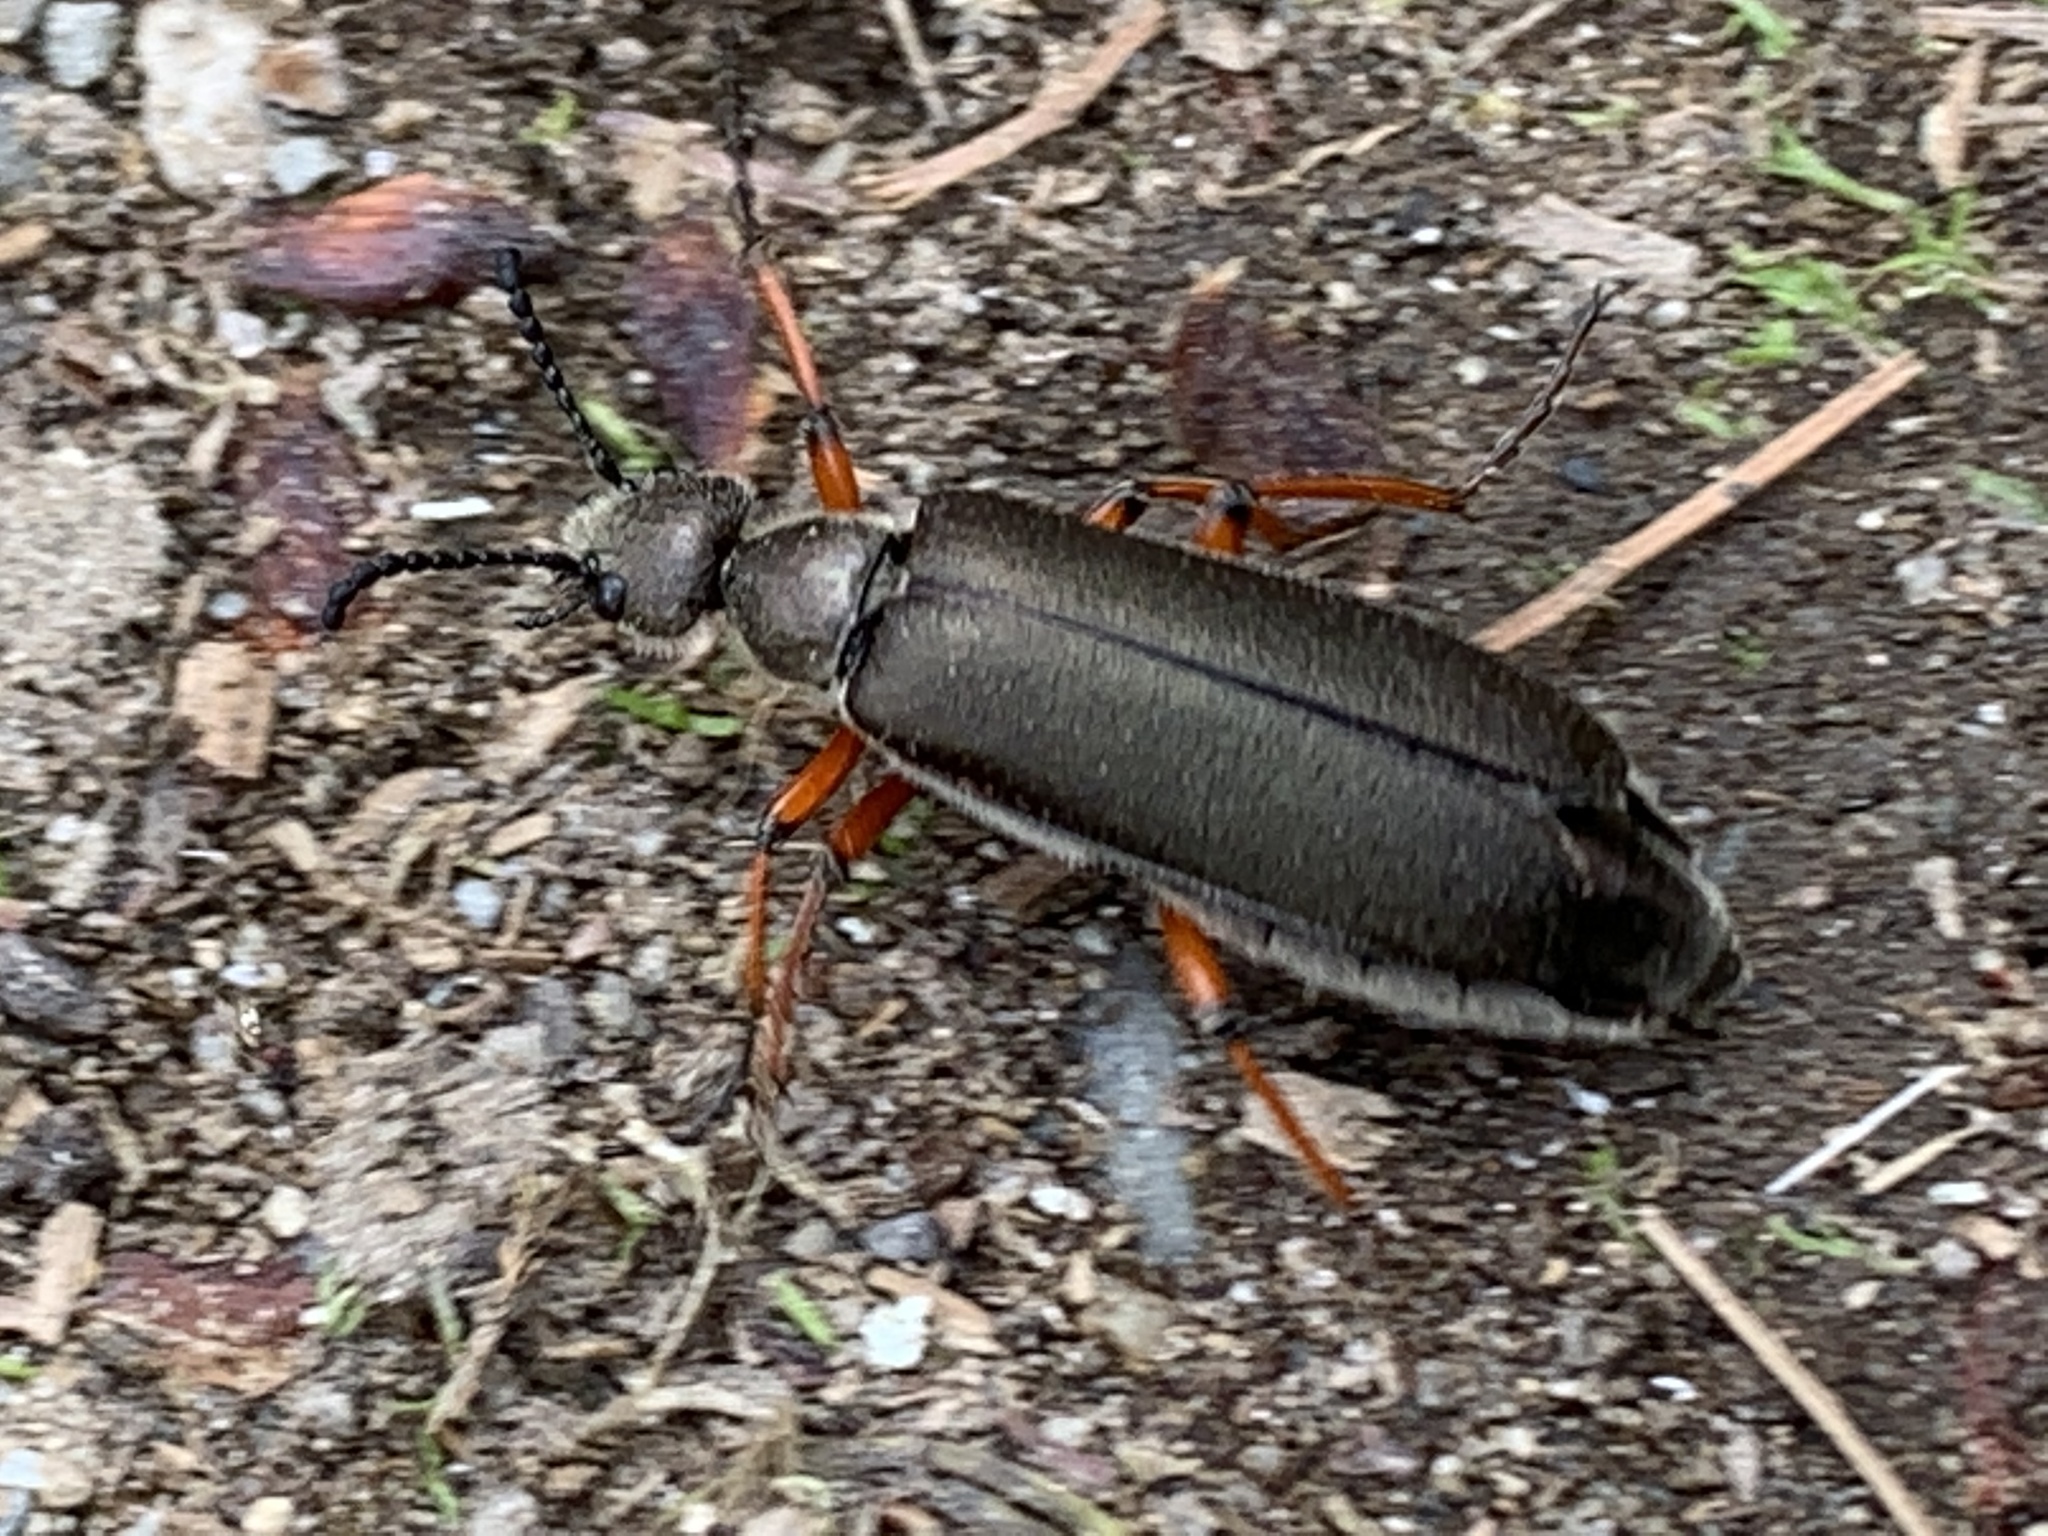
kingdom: Animalia
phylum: Arthropoda
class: Insecta
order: Coleoptera
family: Meloidae
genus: Lytta
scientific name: Lytta aenea
